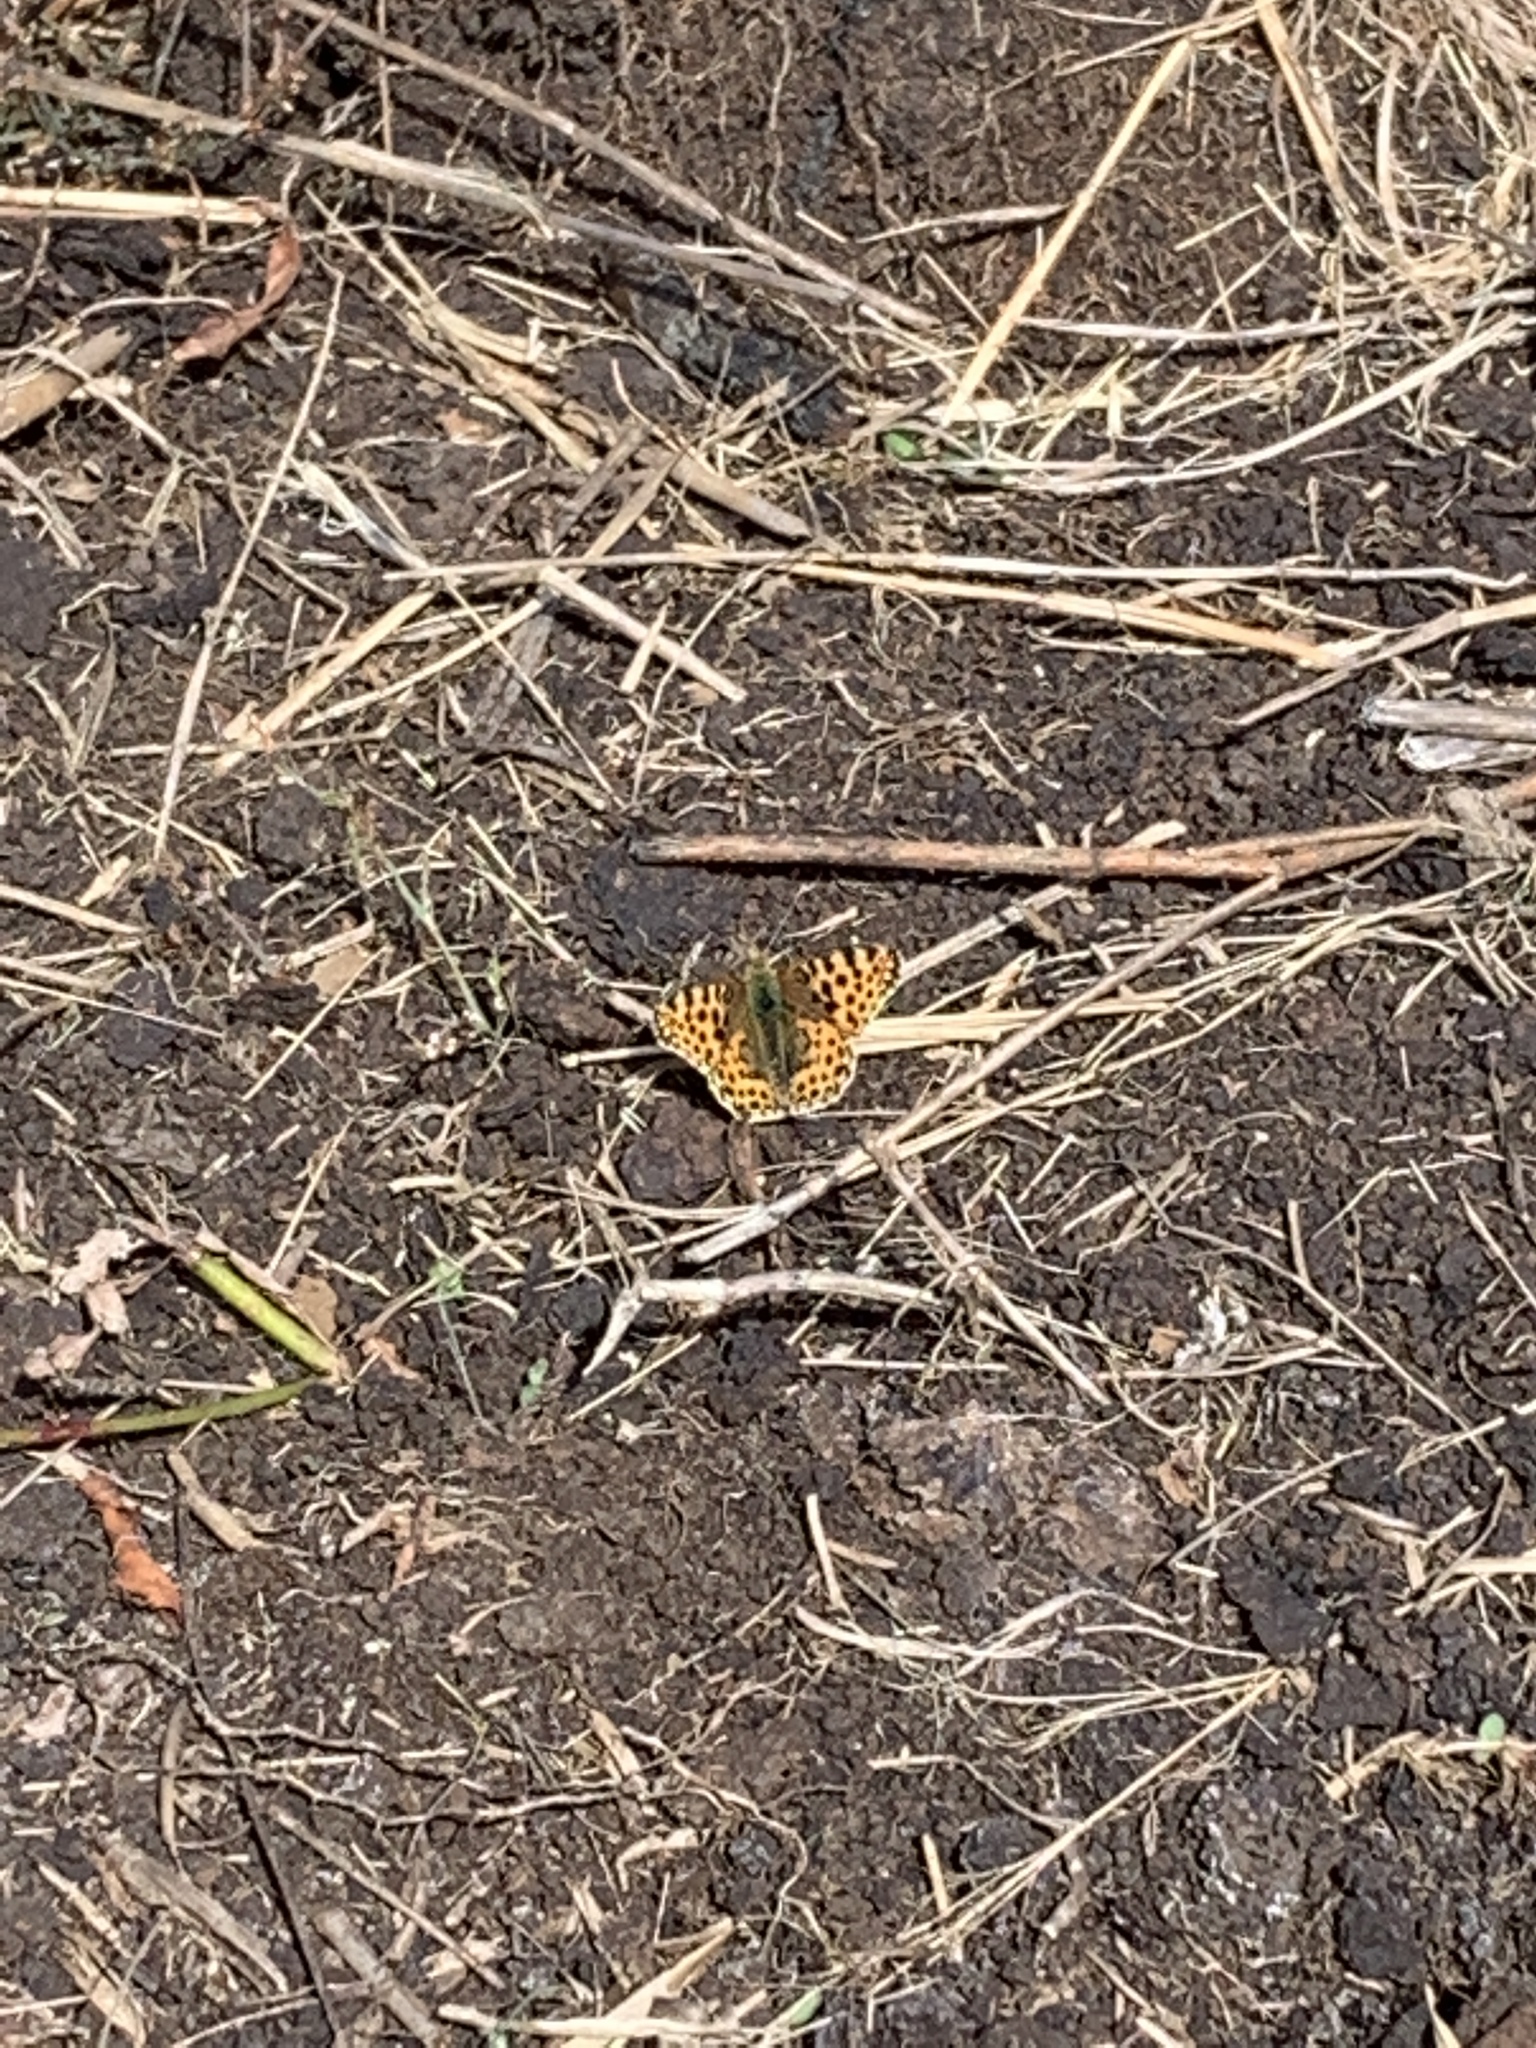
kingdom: Animalia
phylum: Arthropoda
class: Insecta
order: Lepidoptera
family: Nymphalidae
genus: Issoria
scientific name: Issoria lathonia
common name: Queen of spain fritillary
